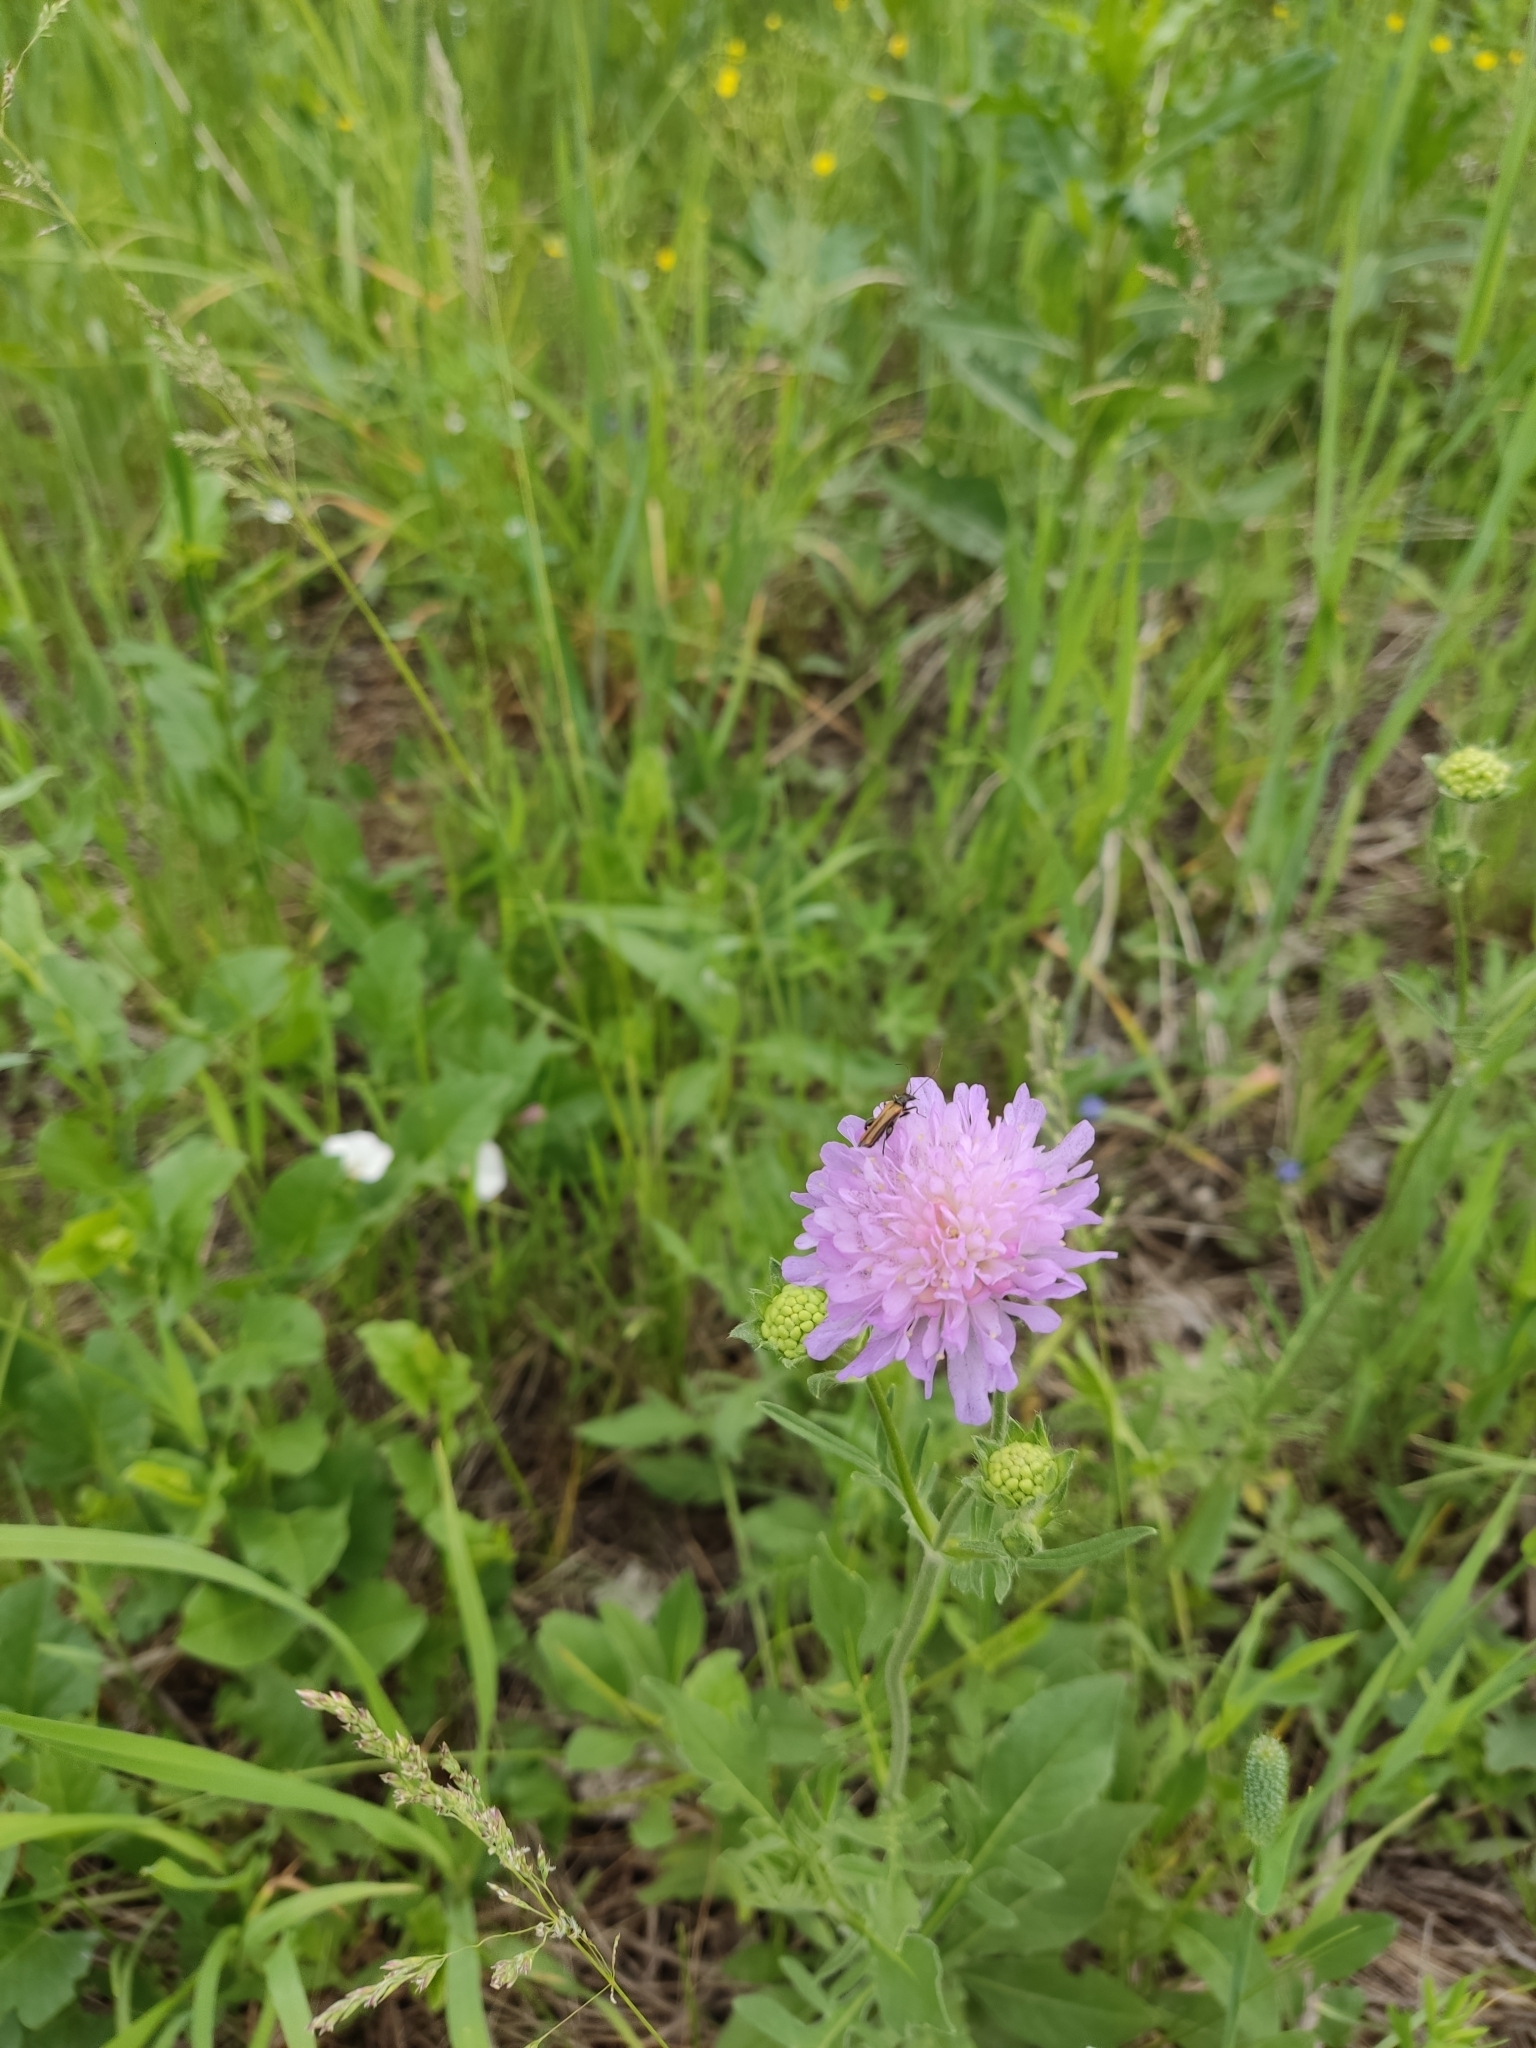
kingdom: Plantae
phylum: Tracheophyta
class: Magnoliopsida
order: Dipsacales
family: Caprifoliaceae
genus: Knautia
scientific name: Knautia arvensis
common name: Field scabiosa
